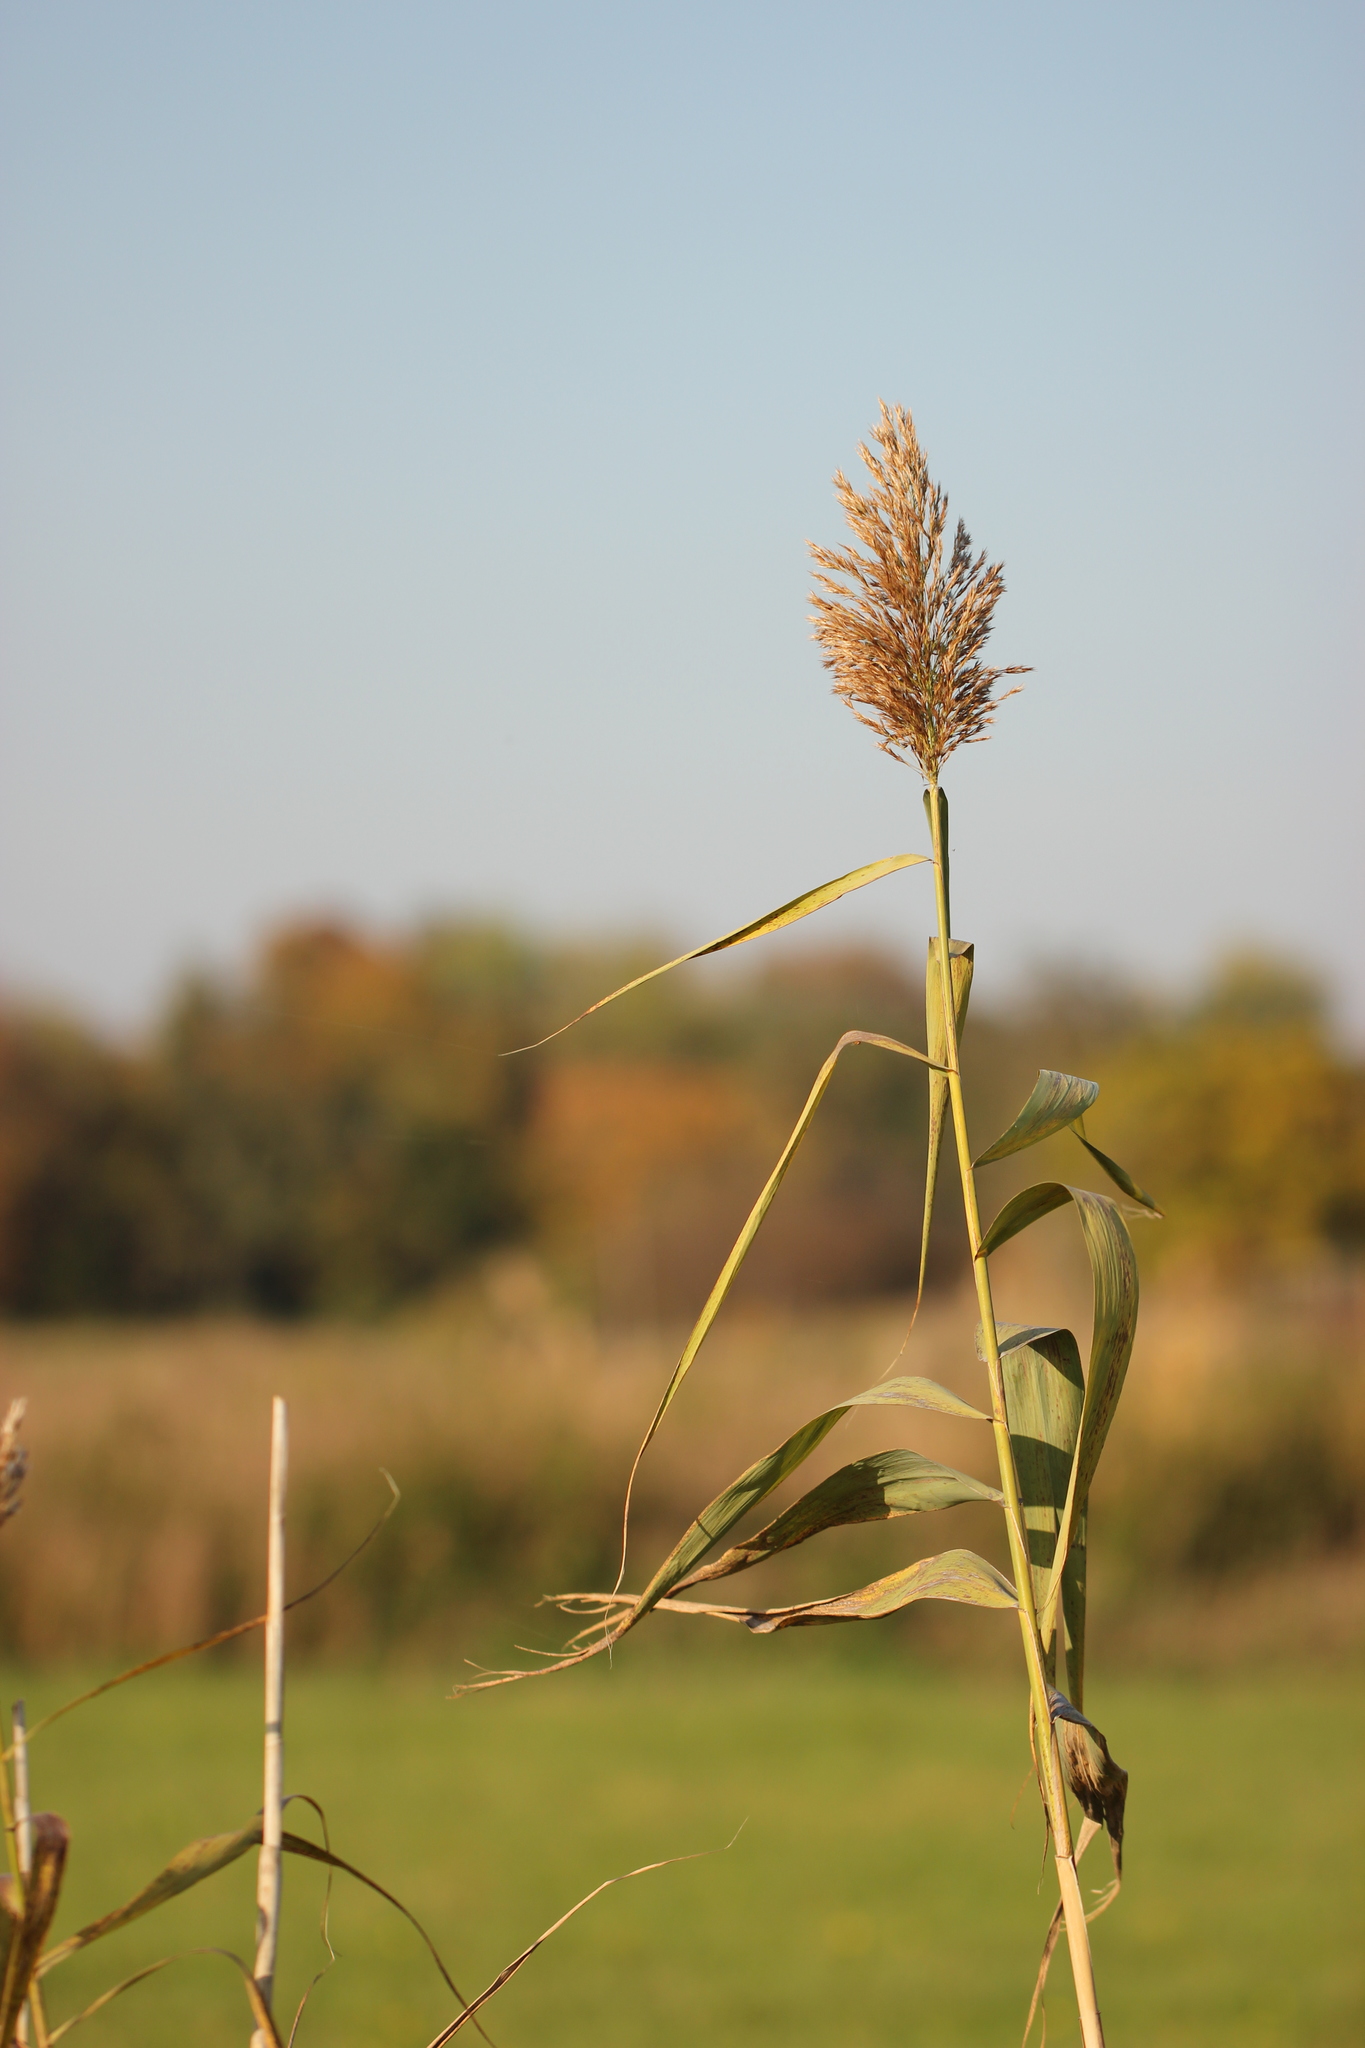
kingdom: Plantae
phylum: Tracheophyta
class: Liliopsida
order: Poales
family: Poaceae
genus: Phragmites
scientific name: Phragmites australis
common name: Common reed
